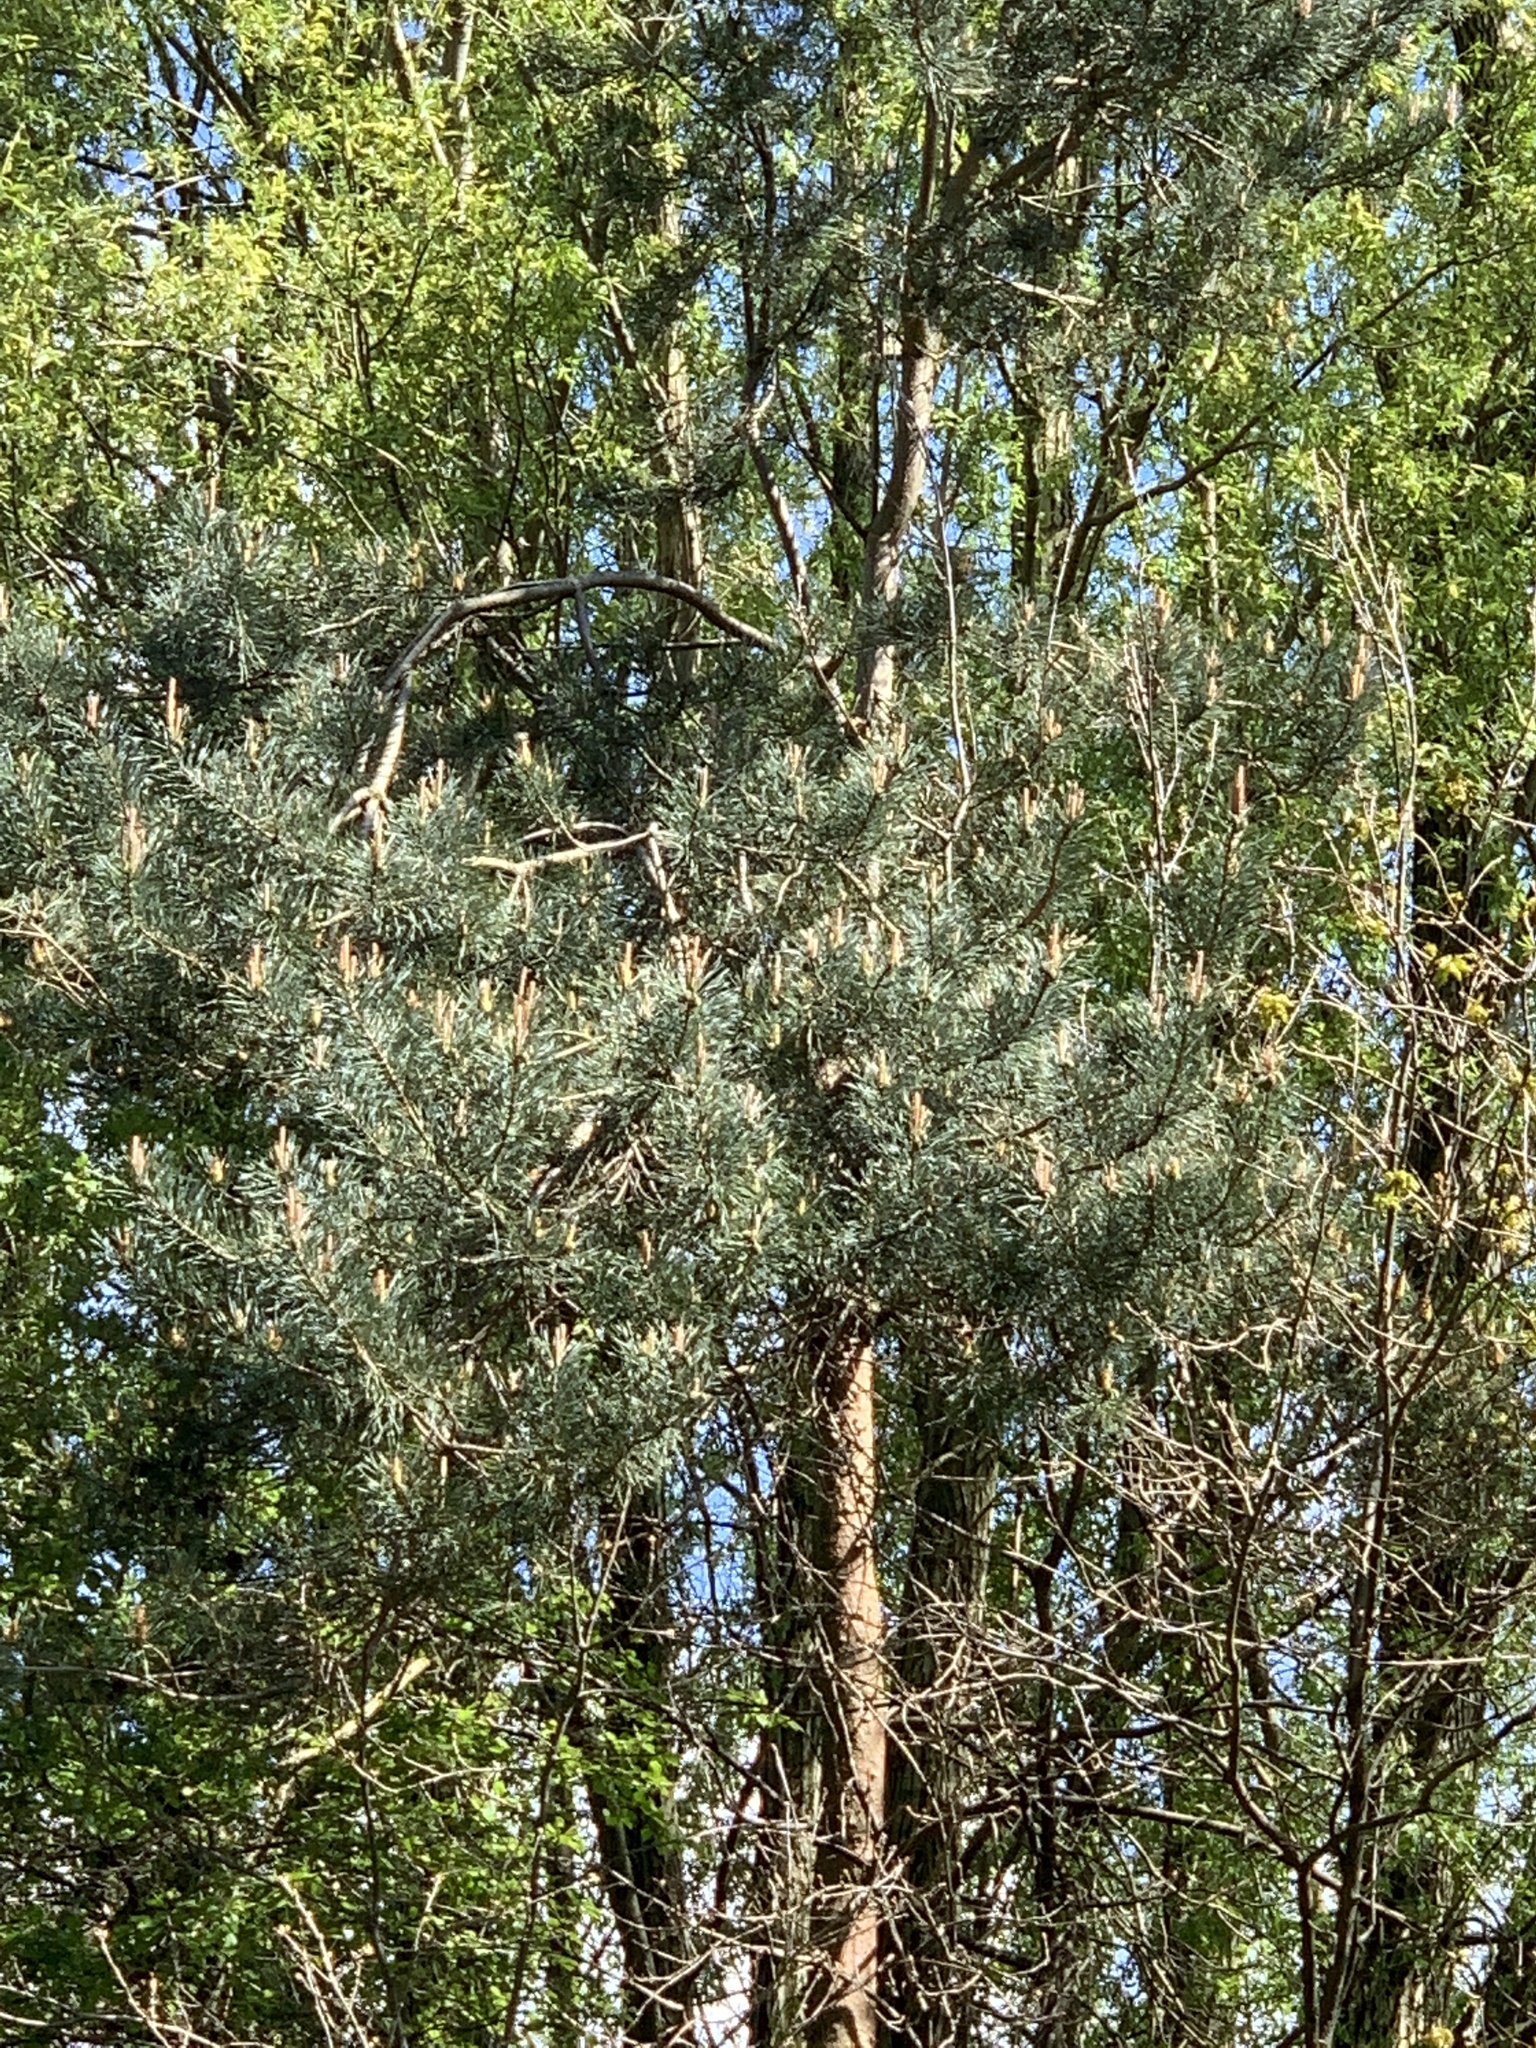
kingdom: Plantae
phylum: Tracheophyta
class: Pinopsida
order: Pinales
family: Pinaceae
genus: Pinus
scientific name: Pinus sylvestris
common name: Scots pine
